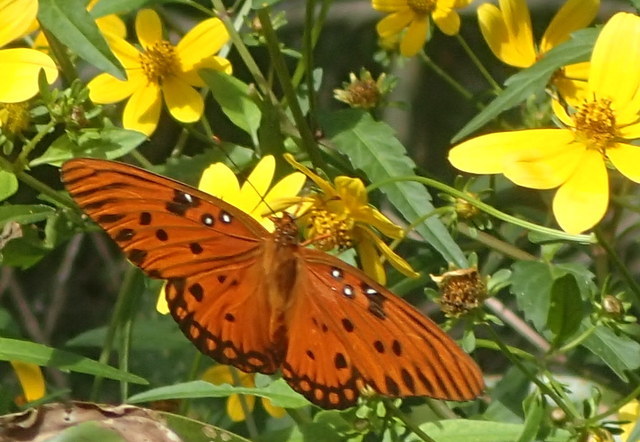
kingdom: Animalia
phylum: Arthropoda
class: Insecta
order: Lepidoptera
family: Nymphalidae
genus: Dione
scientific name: Dione vanillae
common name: Gulf fritillary
